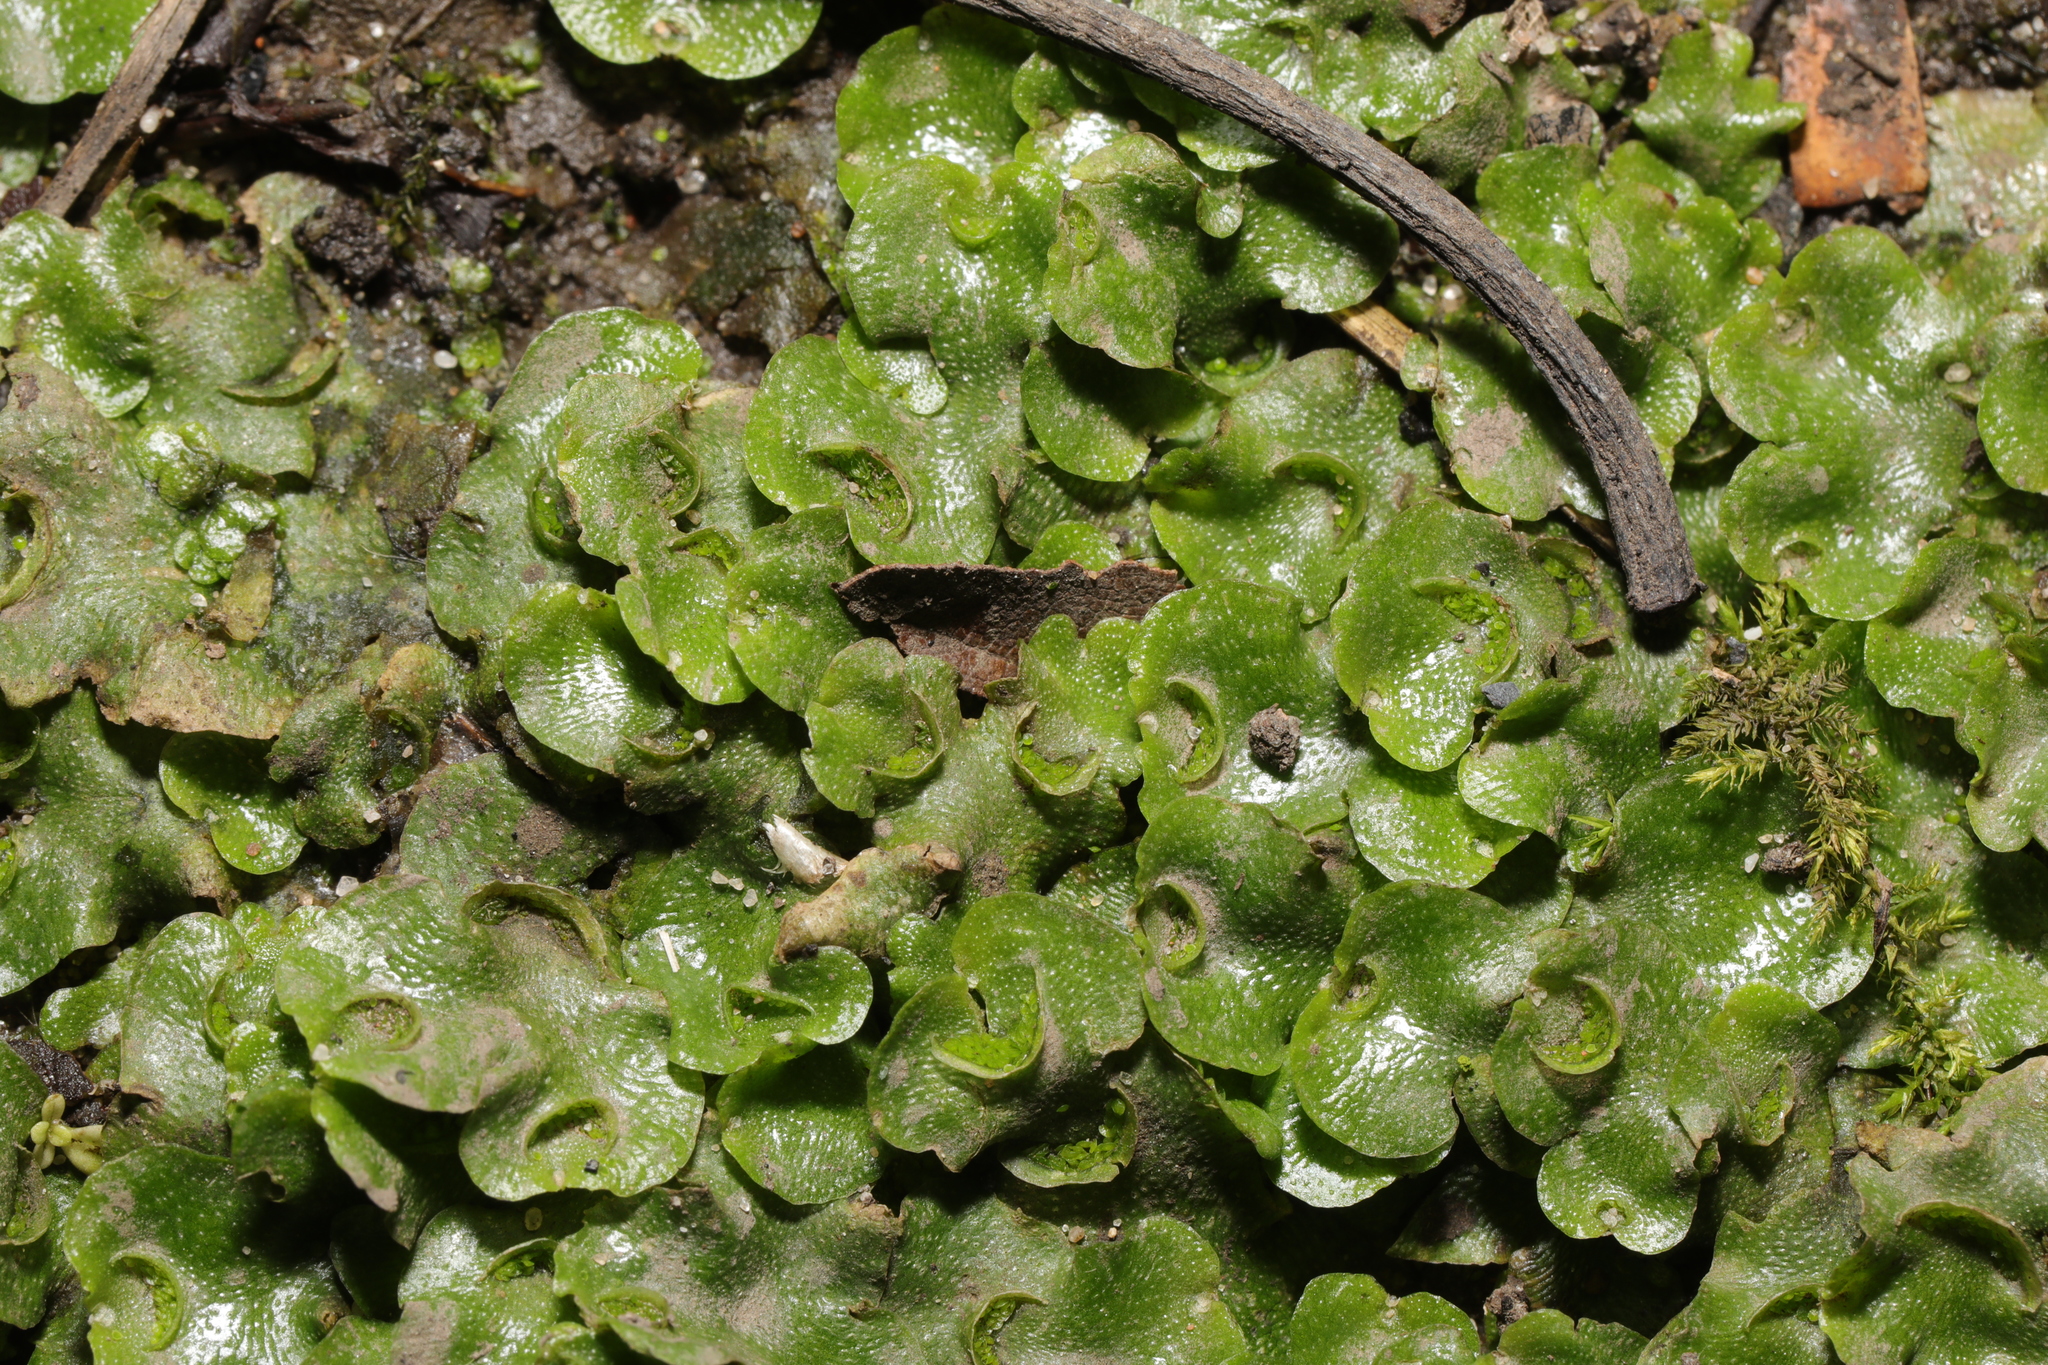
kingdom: Plantae
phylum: Marchantiophyta
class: Marchantiopsida
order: Lunulariales
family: Lunulariaceae
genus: Lunularia
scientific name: Lunularia cruciata
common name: Crescent-cup liverwort
